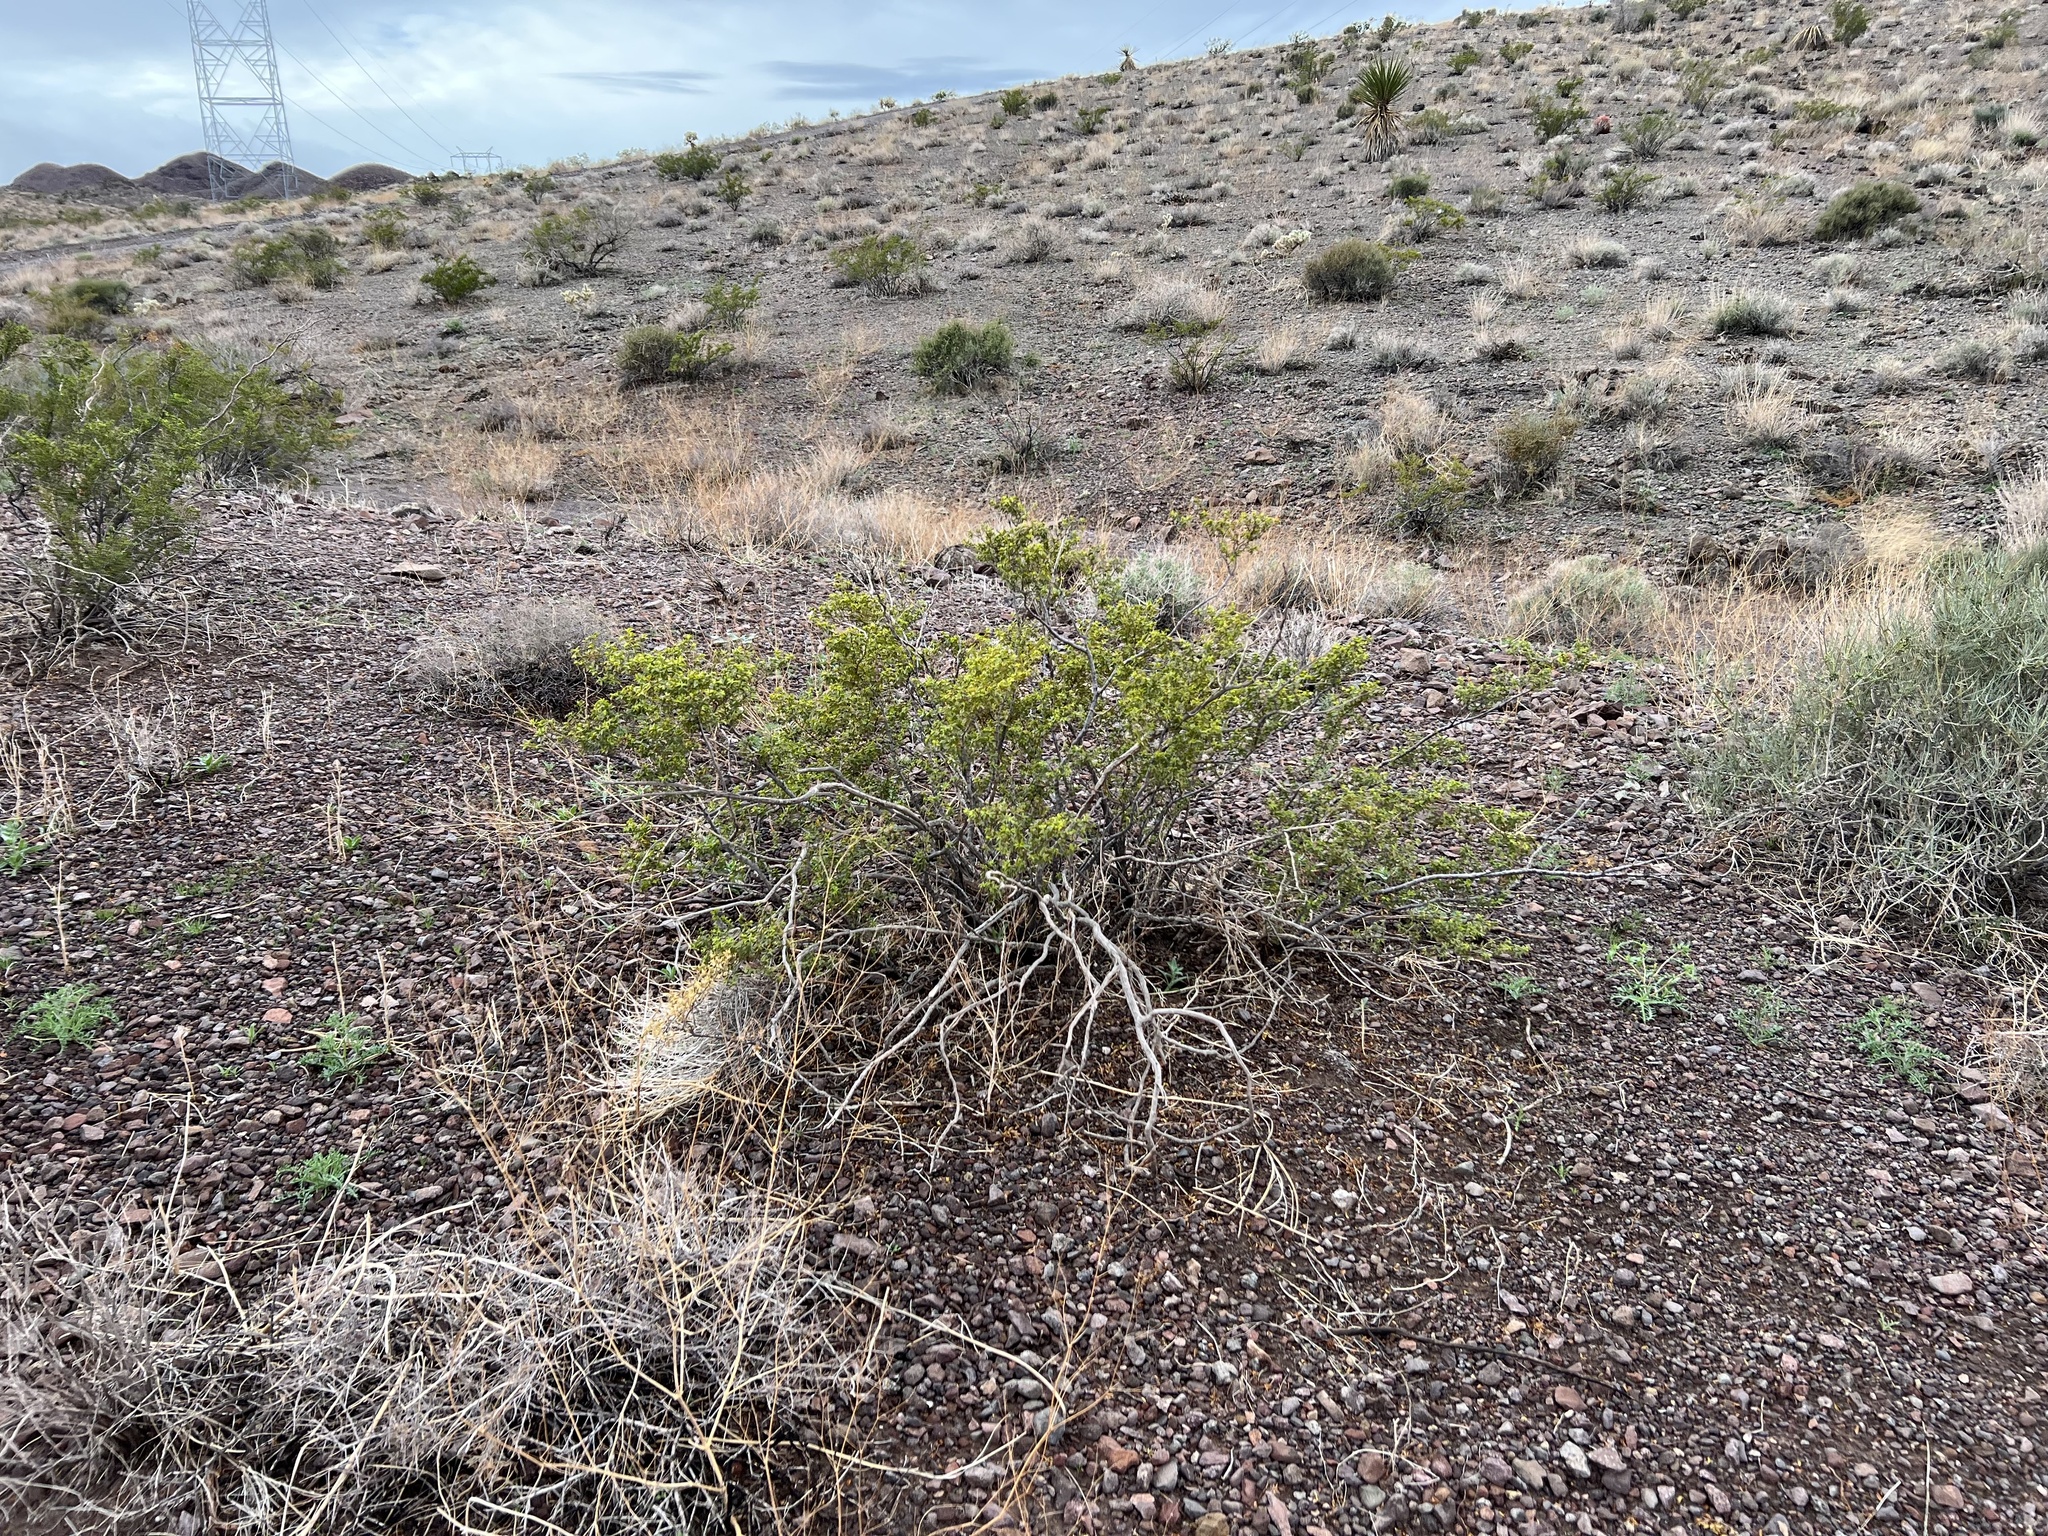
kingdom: Plantae
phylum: Tracheophyta
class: Magnoliopsida
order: Zygophyllales
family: Zygophyllaceae
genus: Larrea
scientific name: Larrea tridentata
